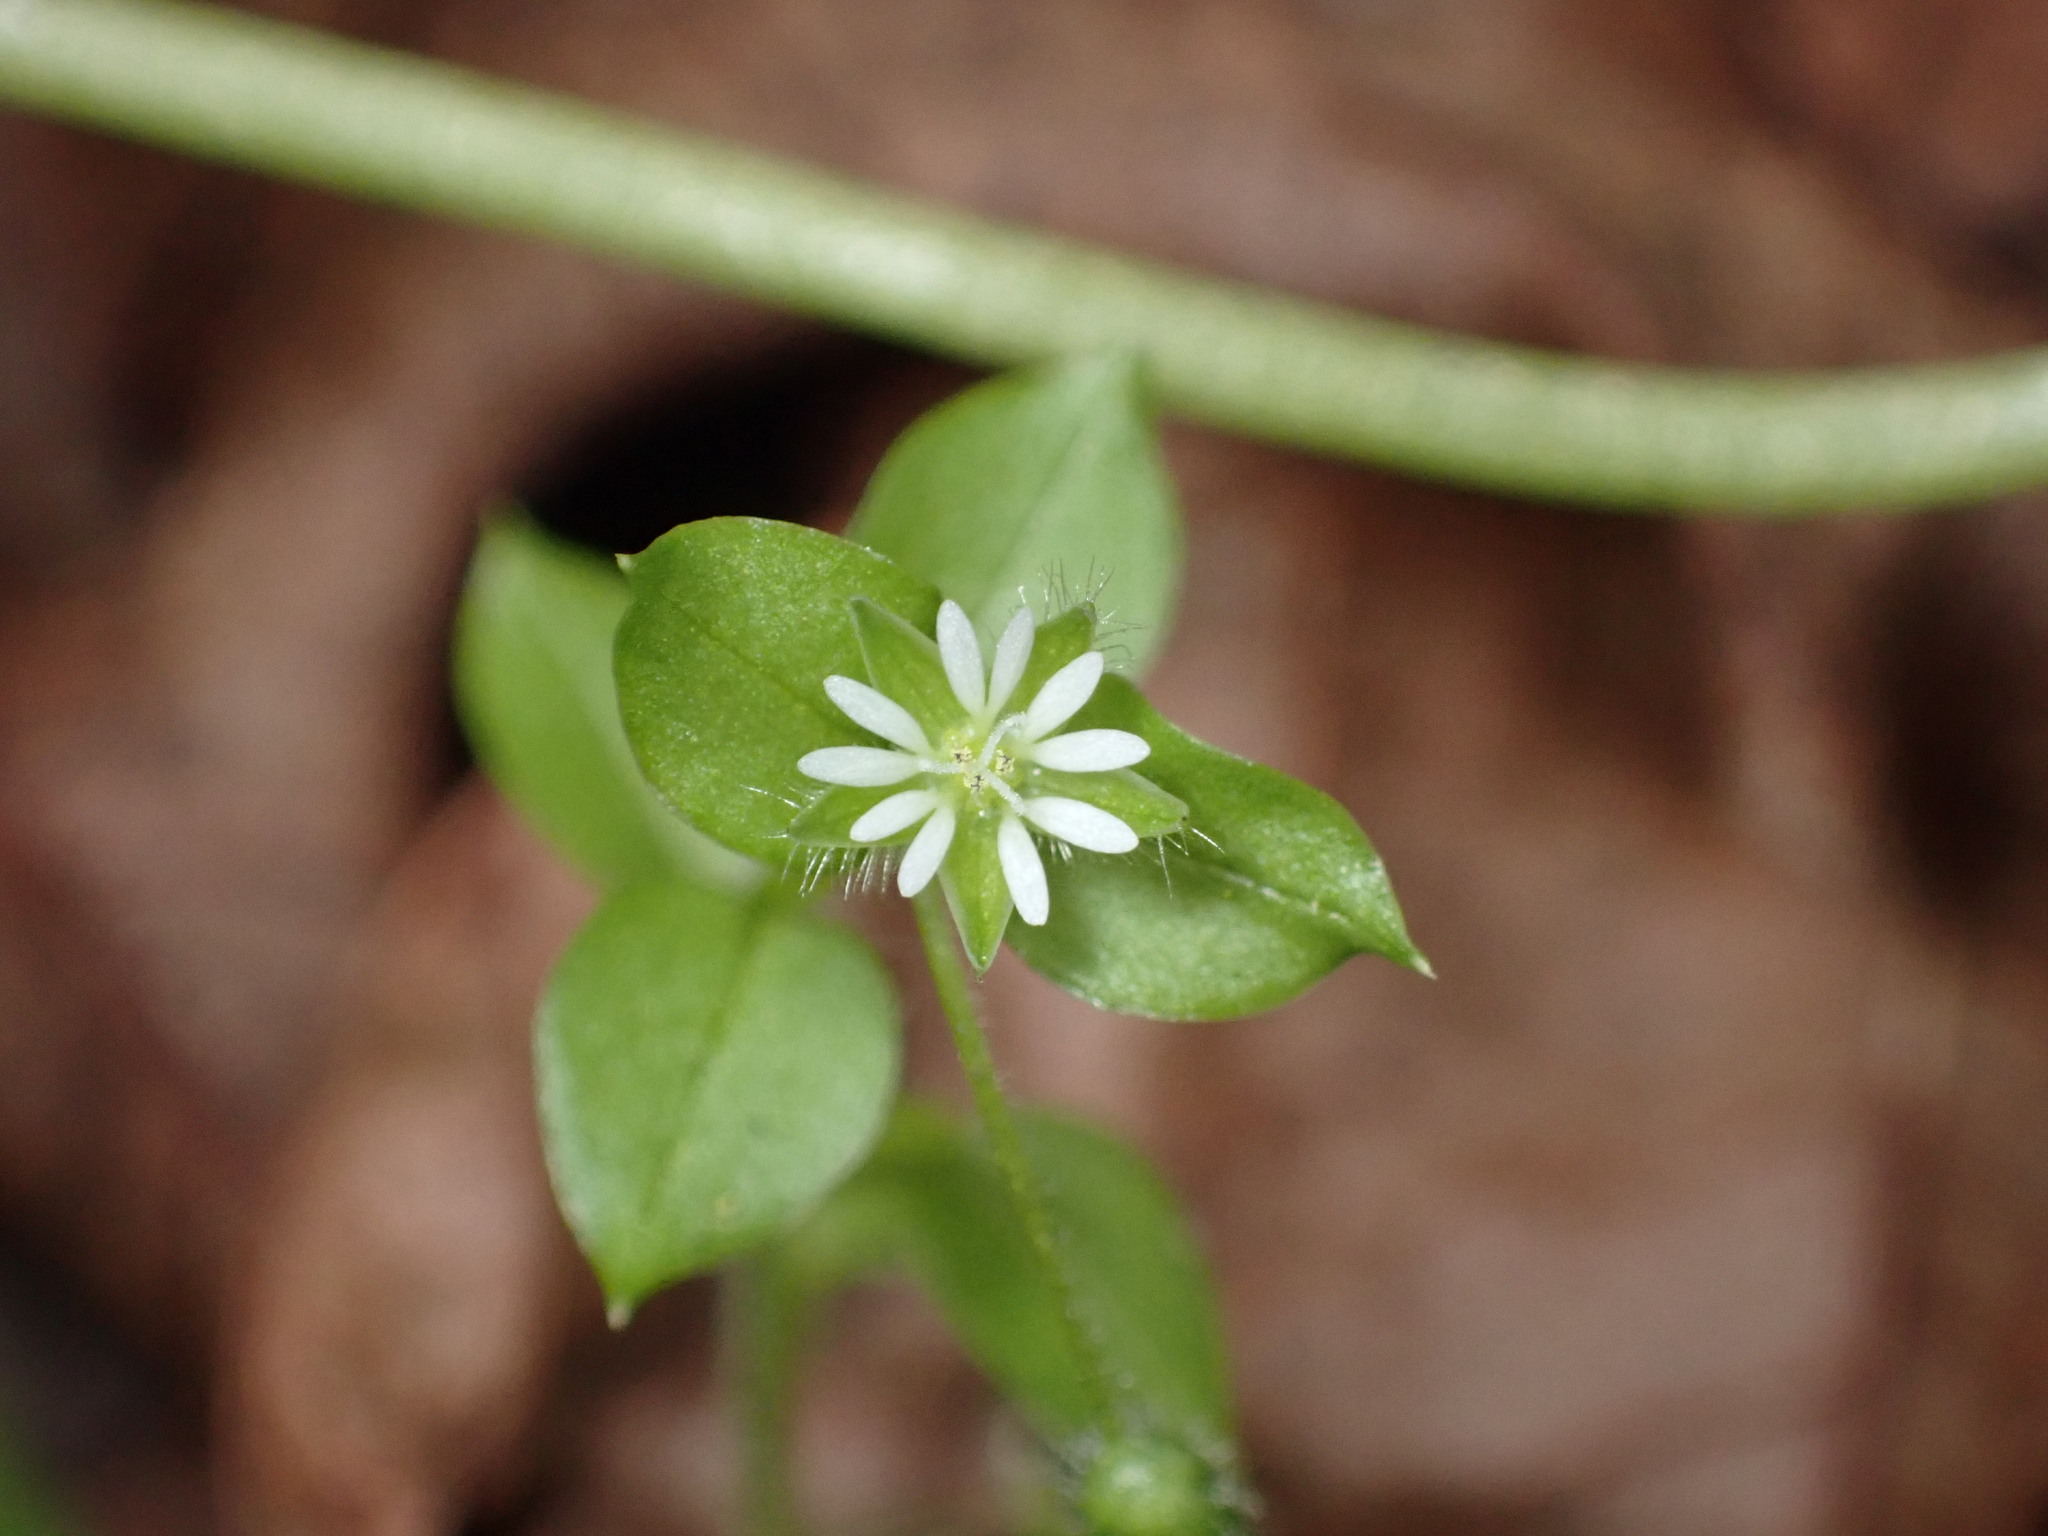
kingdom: Plantae
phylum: Tracheophyta
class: Magnoliopsida
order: Caryophyllales
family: Caryophyllaceae
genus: Stellaria
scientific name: Stellaria media
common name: Common chickweed
